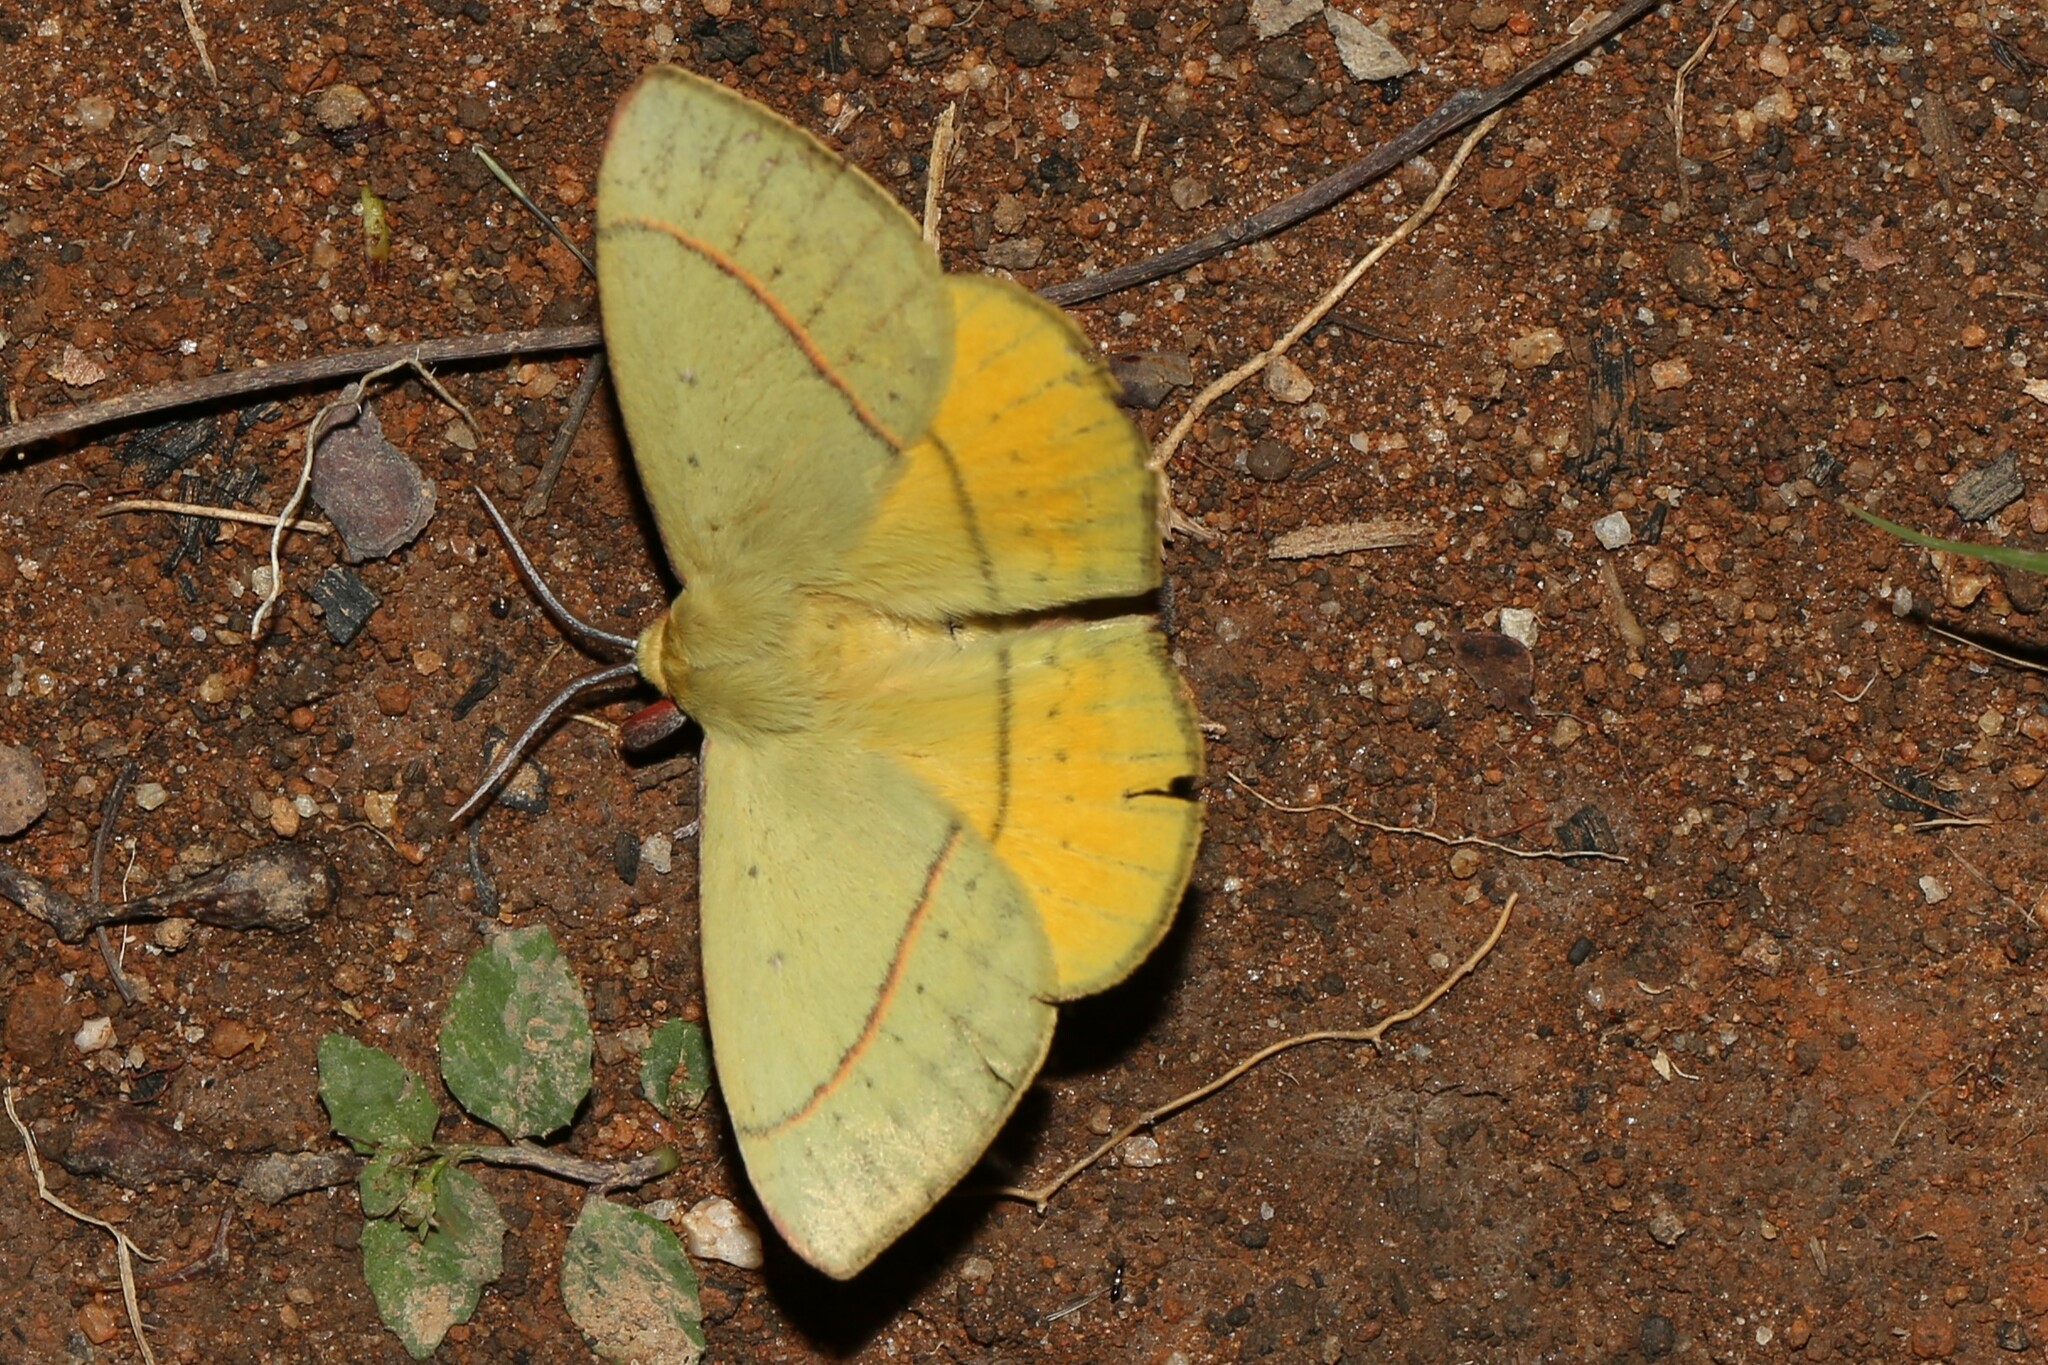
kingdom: Animalia
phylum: Arthropoda
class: Insecta
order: Lepidoptera
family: Anthelidae
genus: Anthela
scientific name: Anthela excellens
